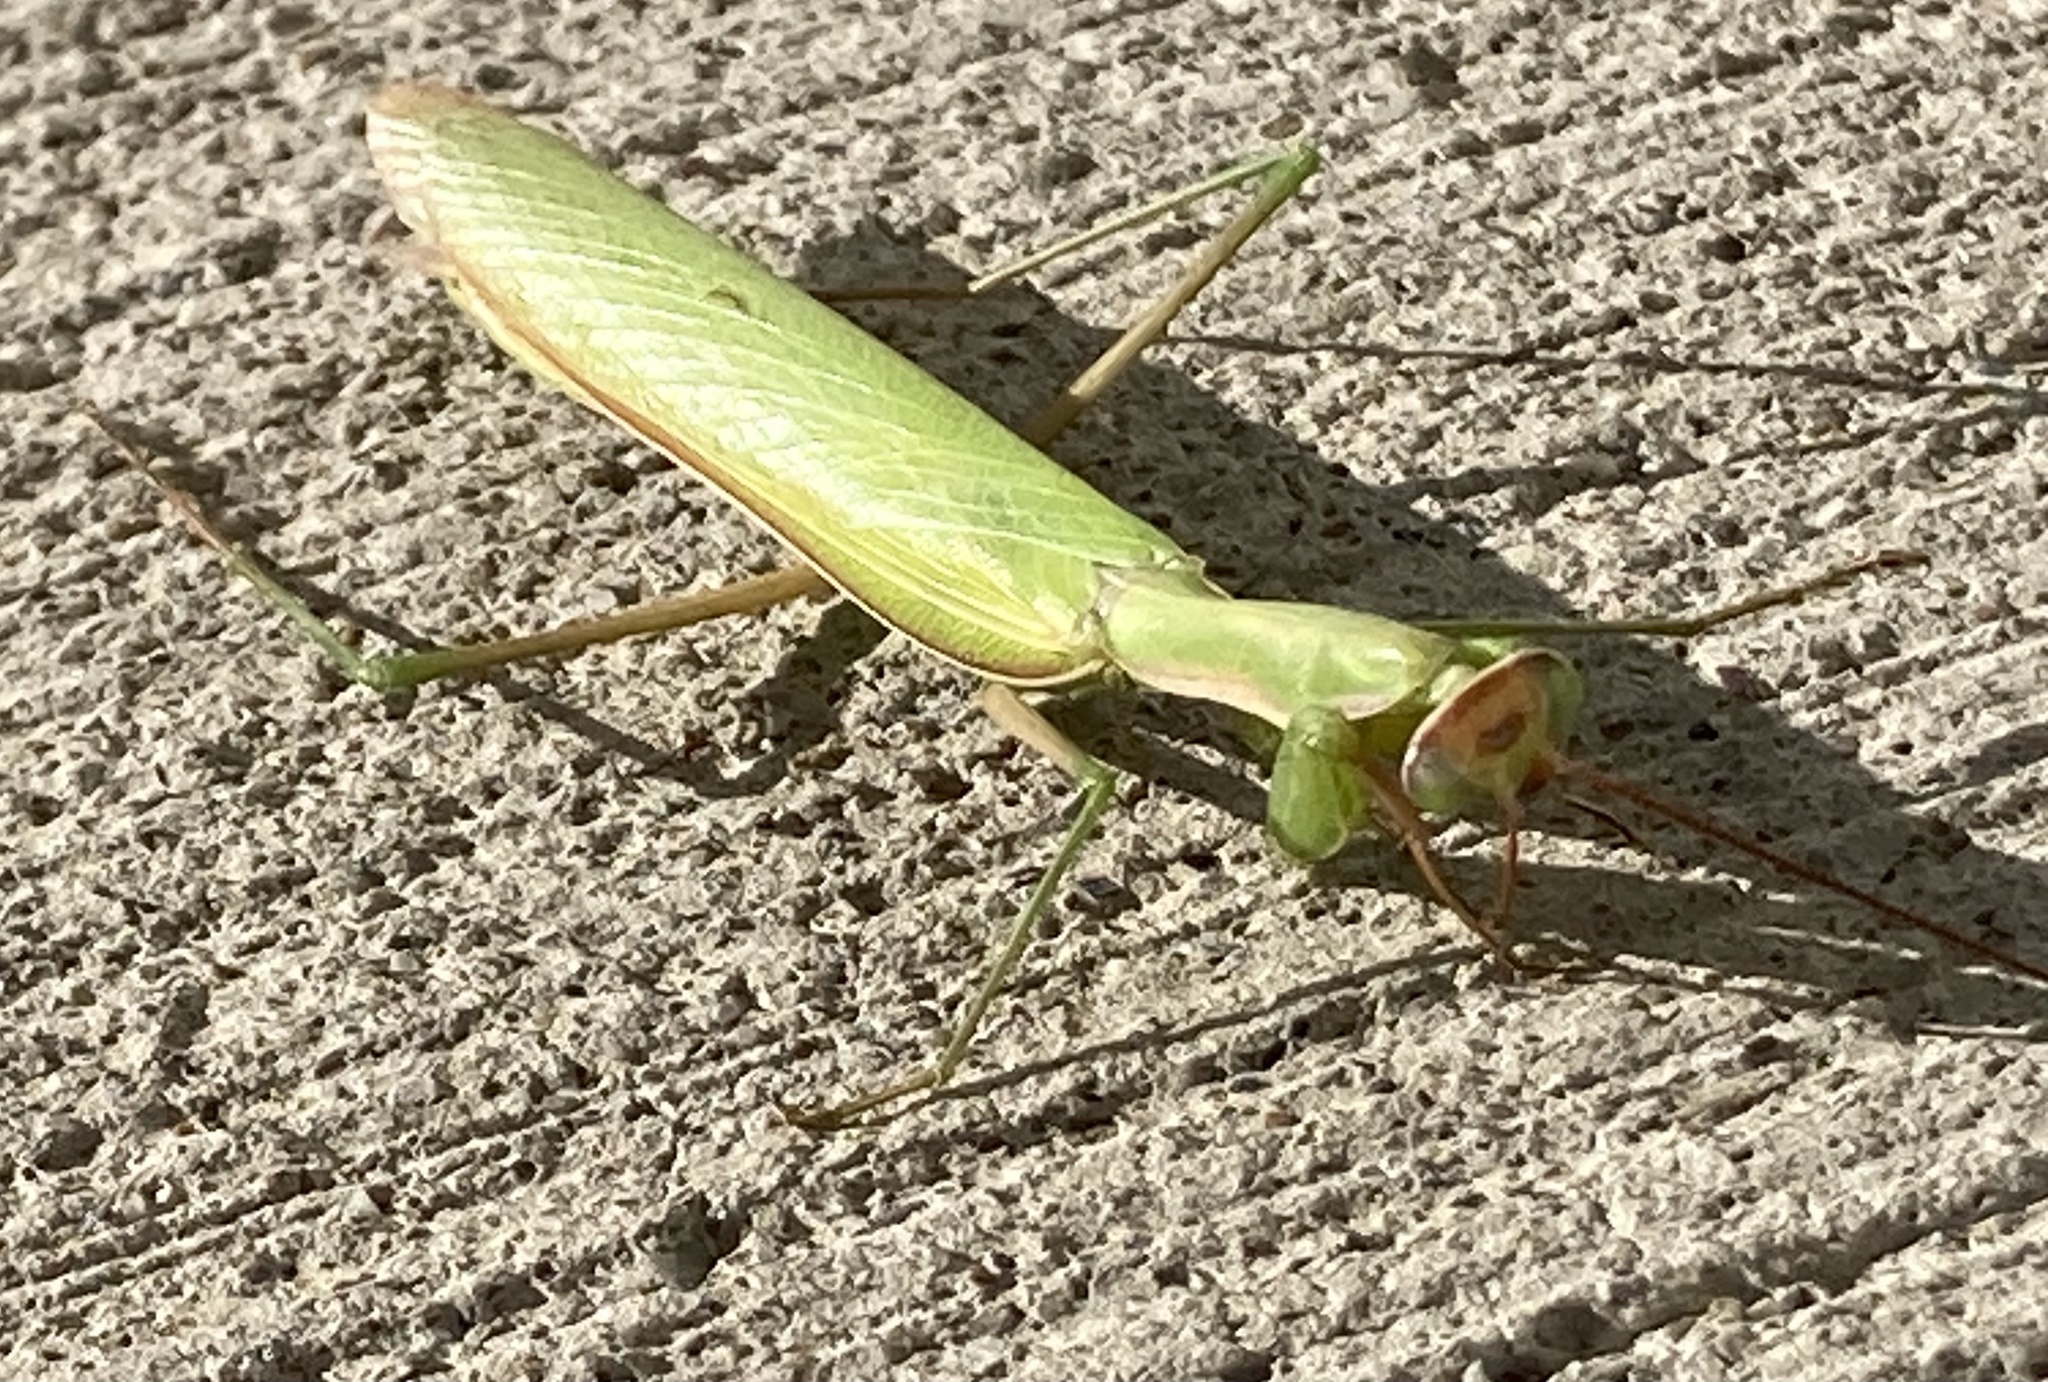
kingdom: Animalia
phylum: Arthropoda
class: Insecta
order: Mantodea
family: Mantidae
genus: Mantis
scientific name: Mantis religiosa
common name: Praying mantis
